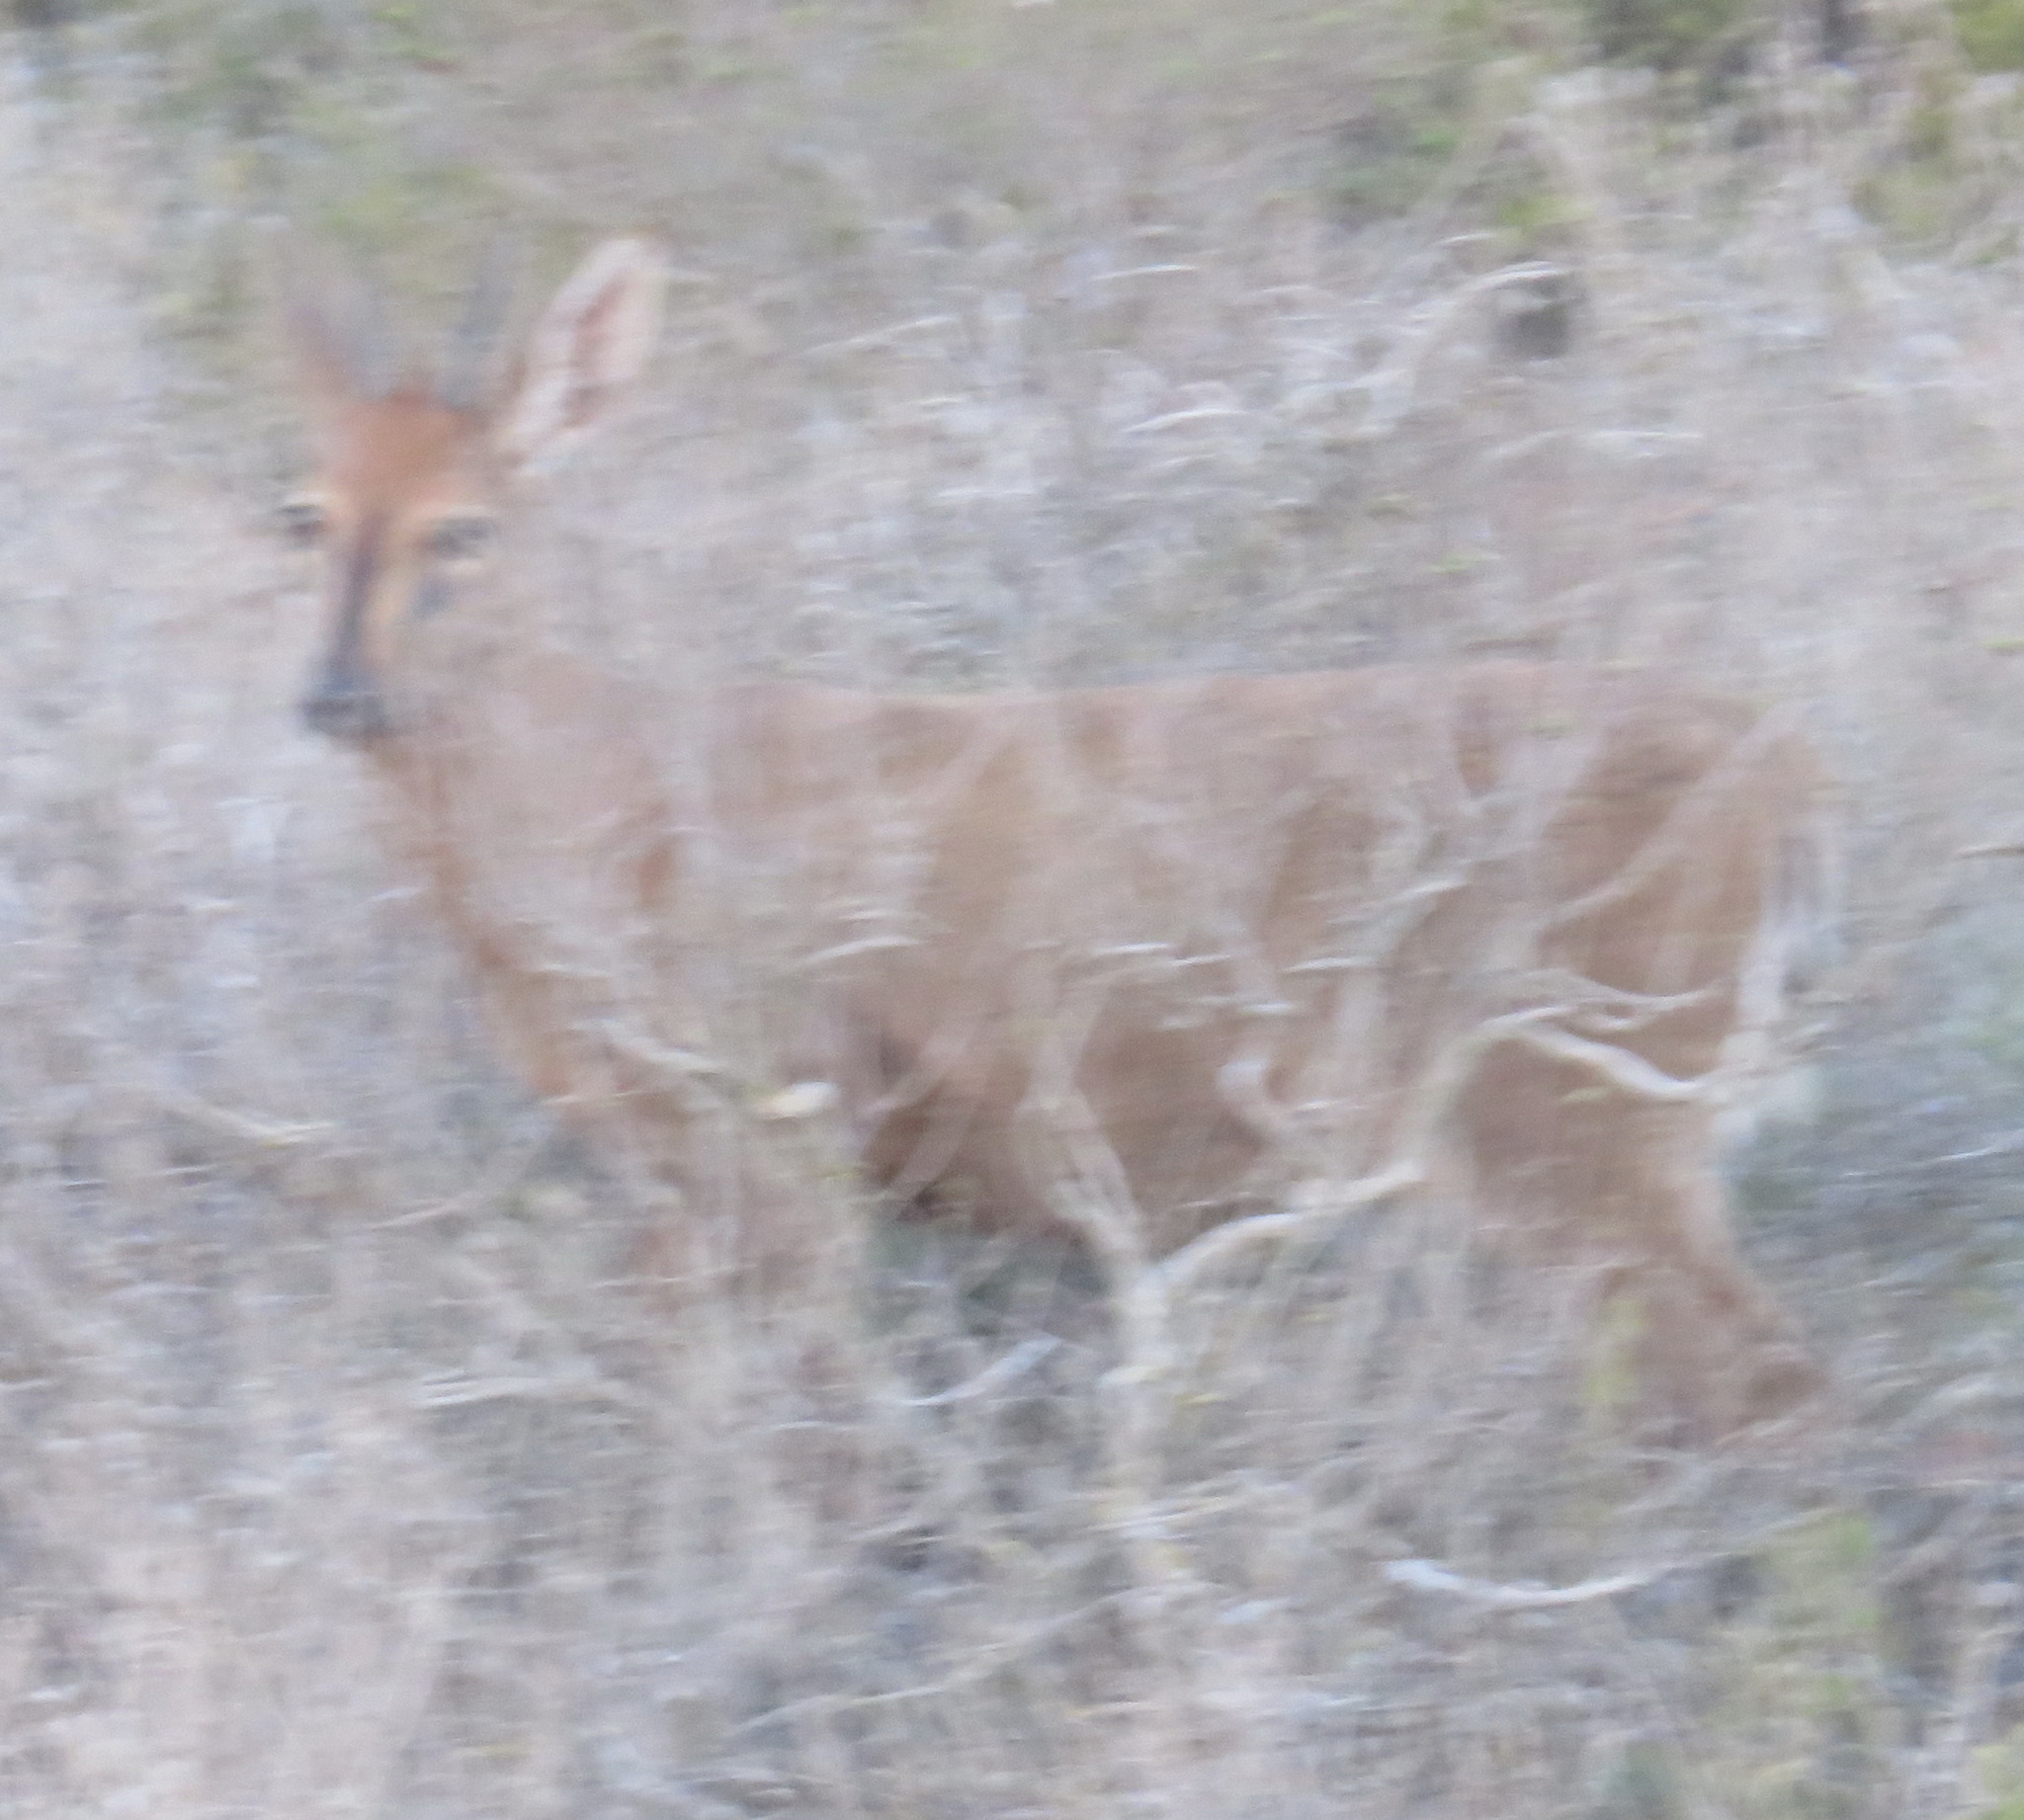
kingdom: Animalia
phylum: Chordata
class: Mammalia
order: Artiodactyla
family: Bovidae
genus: Sylvicapra
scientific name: Sylvicapra grimmia
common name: Bush duiker
